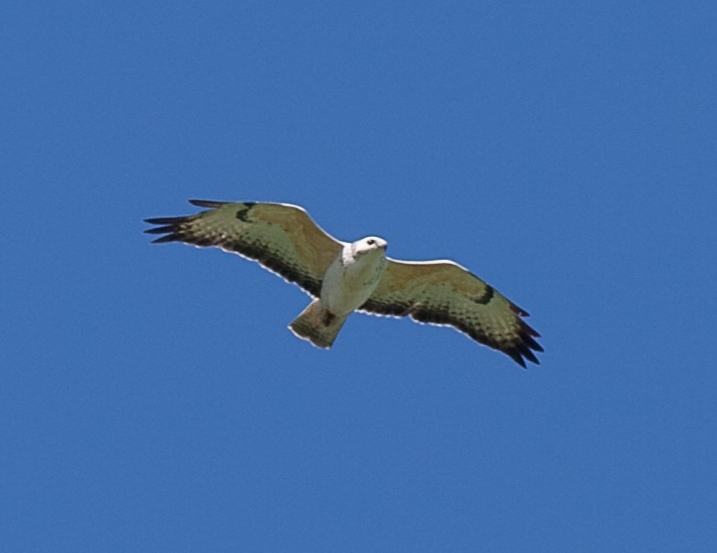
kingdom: Animalia
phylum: Chordata
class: Aves
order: Accipitriformes
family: Accipitridae
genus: Buteo
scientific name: Buteo buteo
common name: Common buzzard
